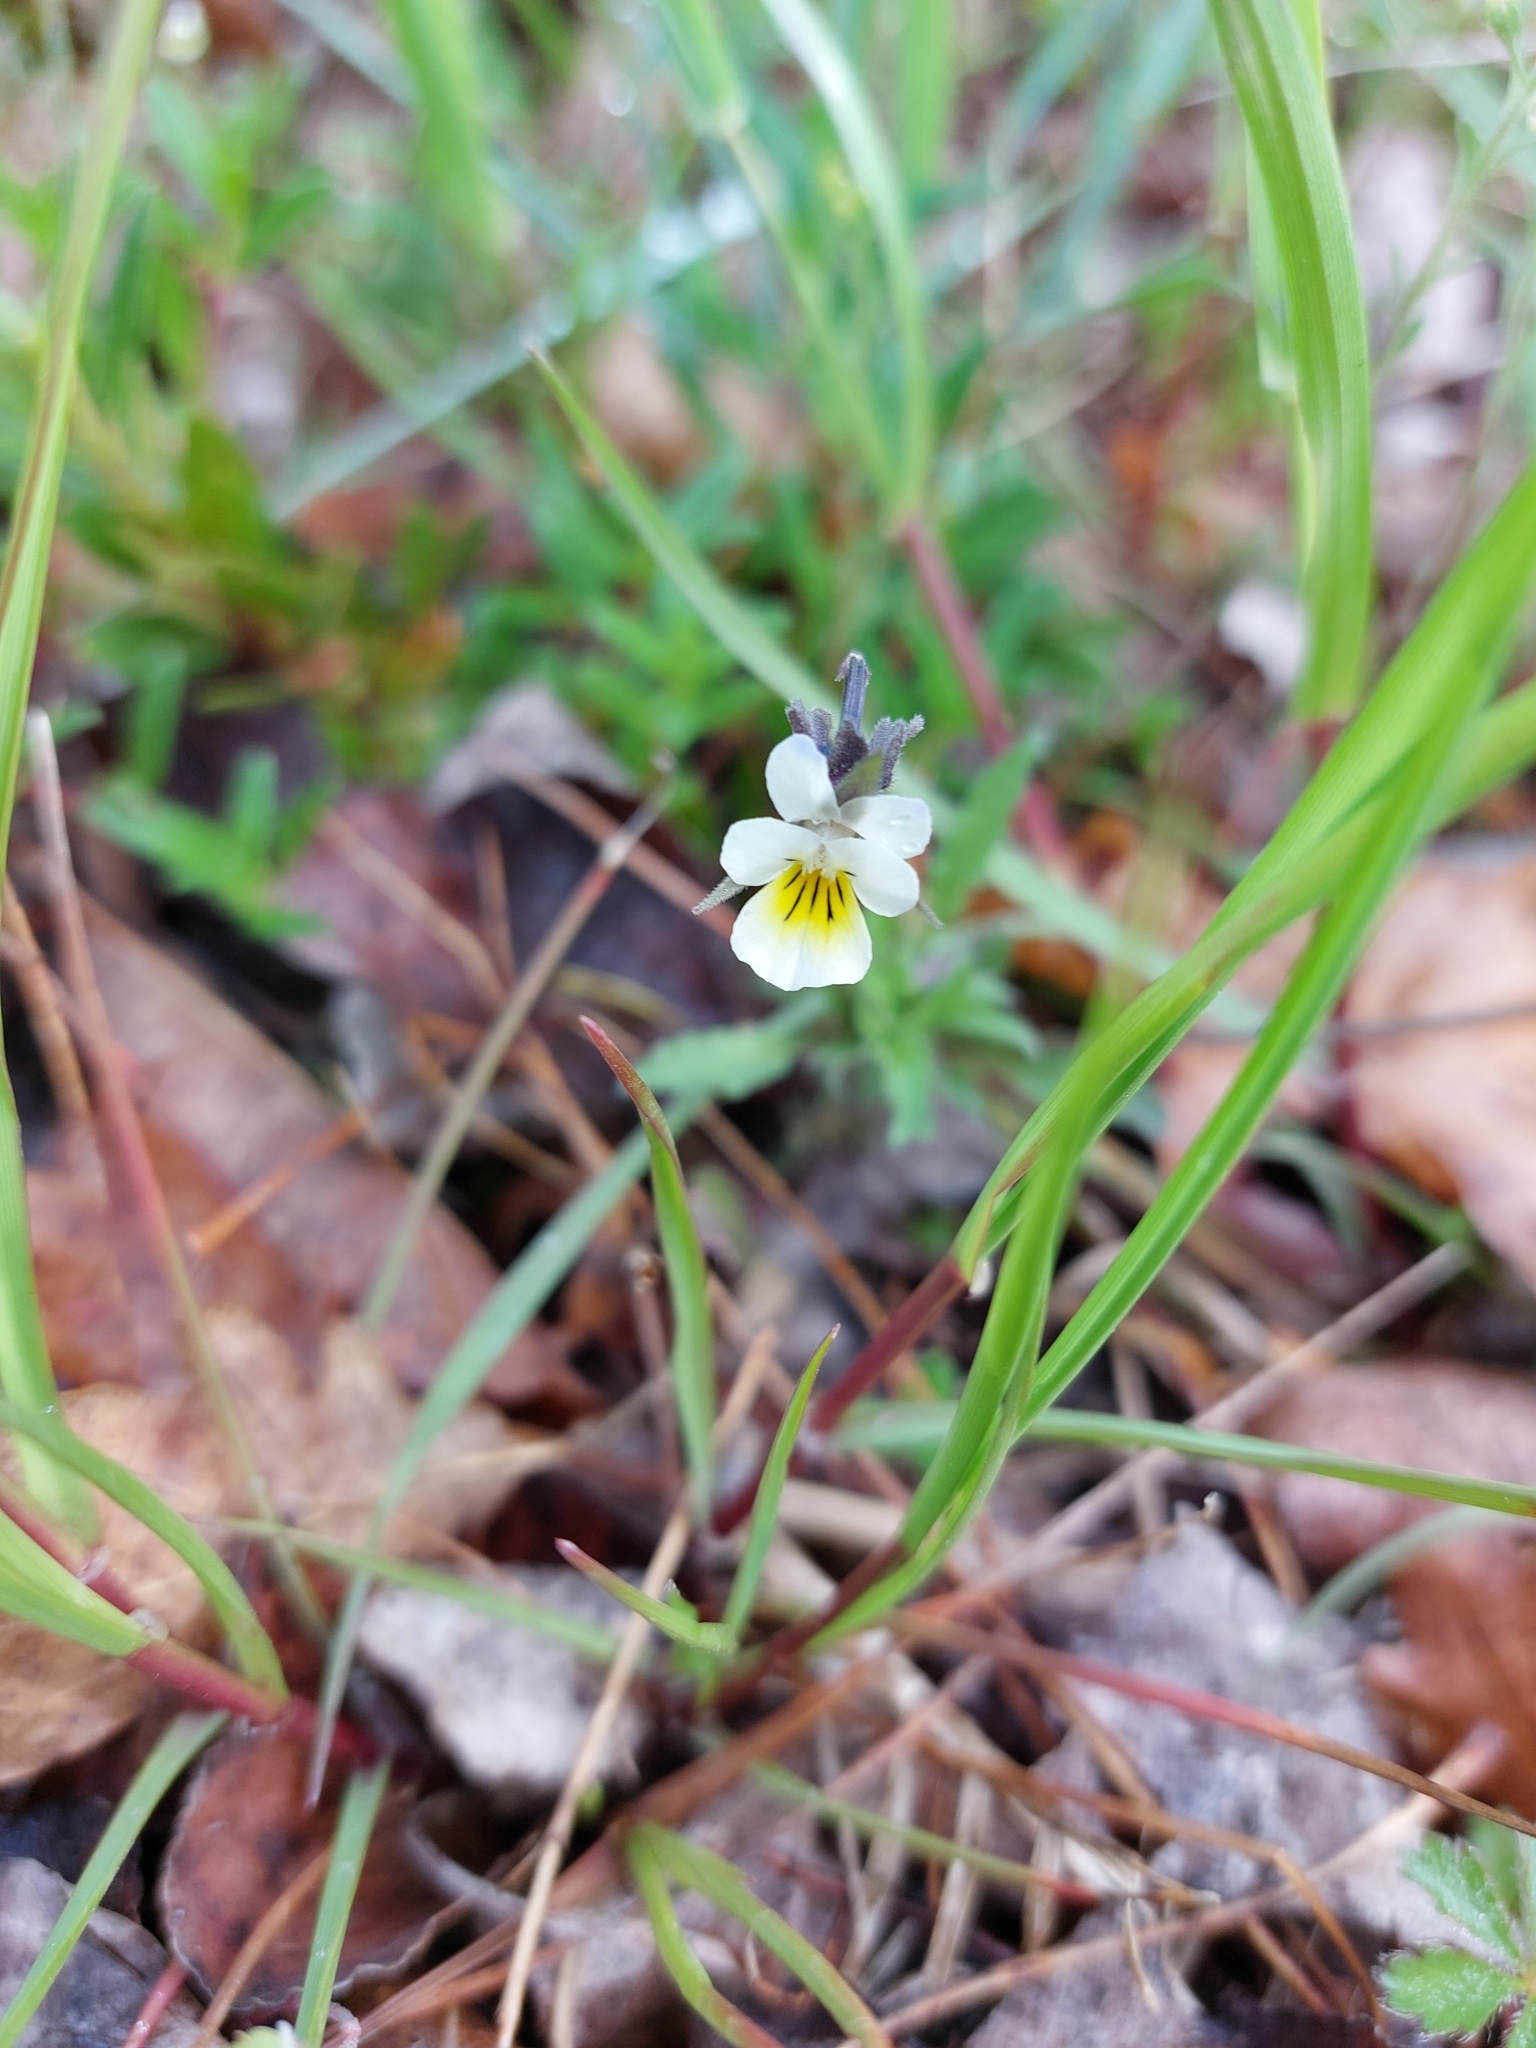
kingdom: Plantae
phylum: Tracheophyta
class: Magnoliopsida
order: Malpighiales
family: Violaceae
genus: Viola
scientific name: Viola arvensis
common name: Field pansy
